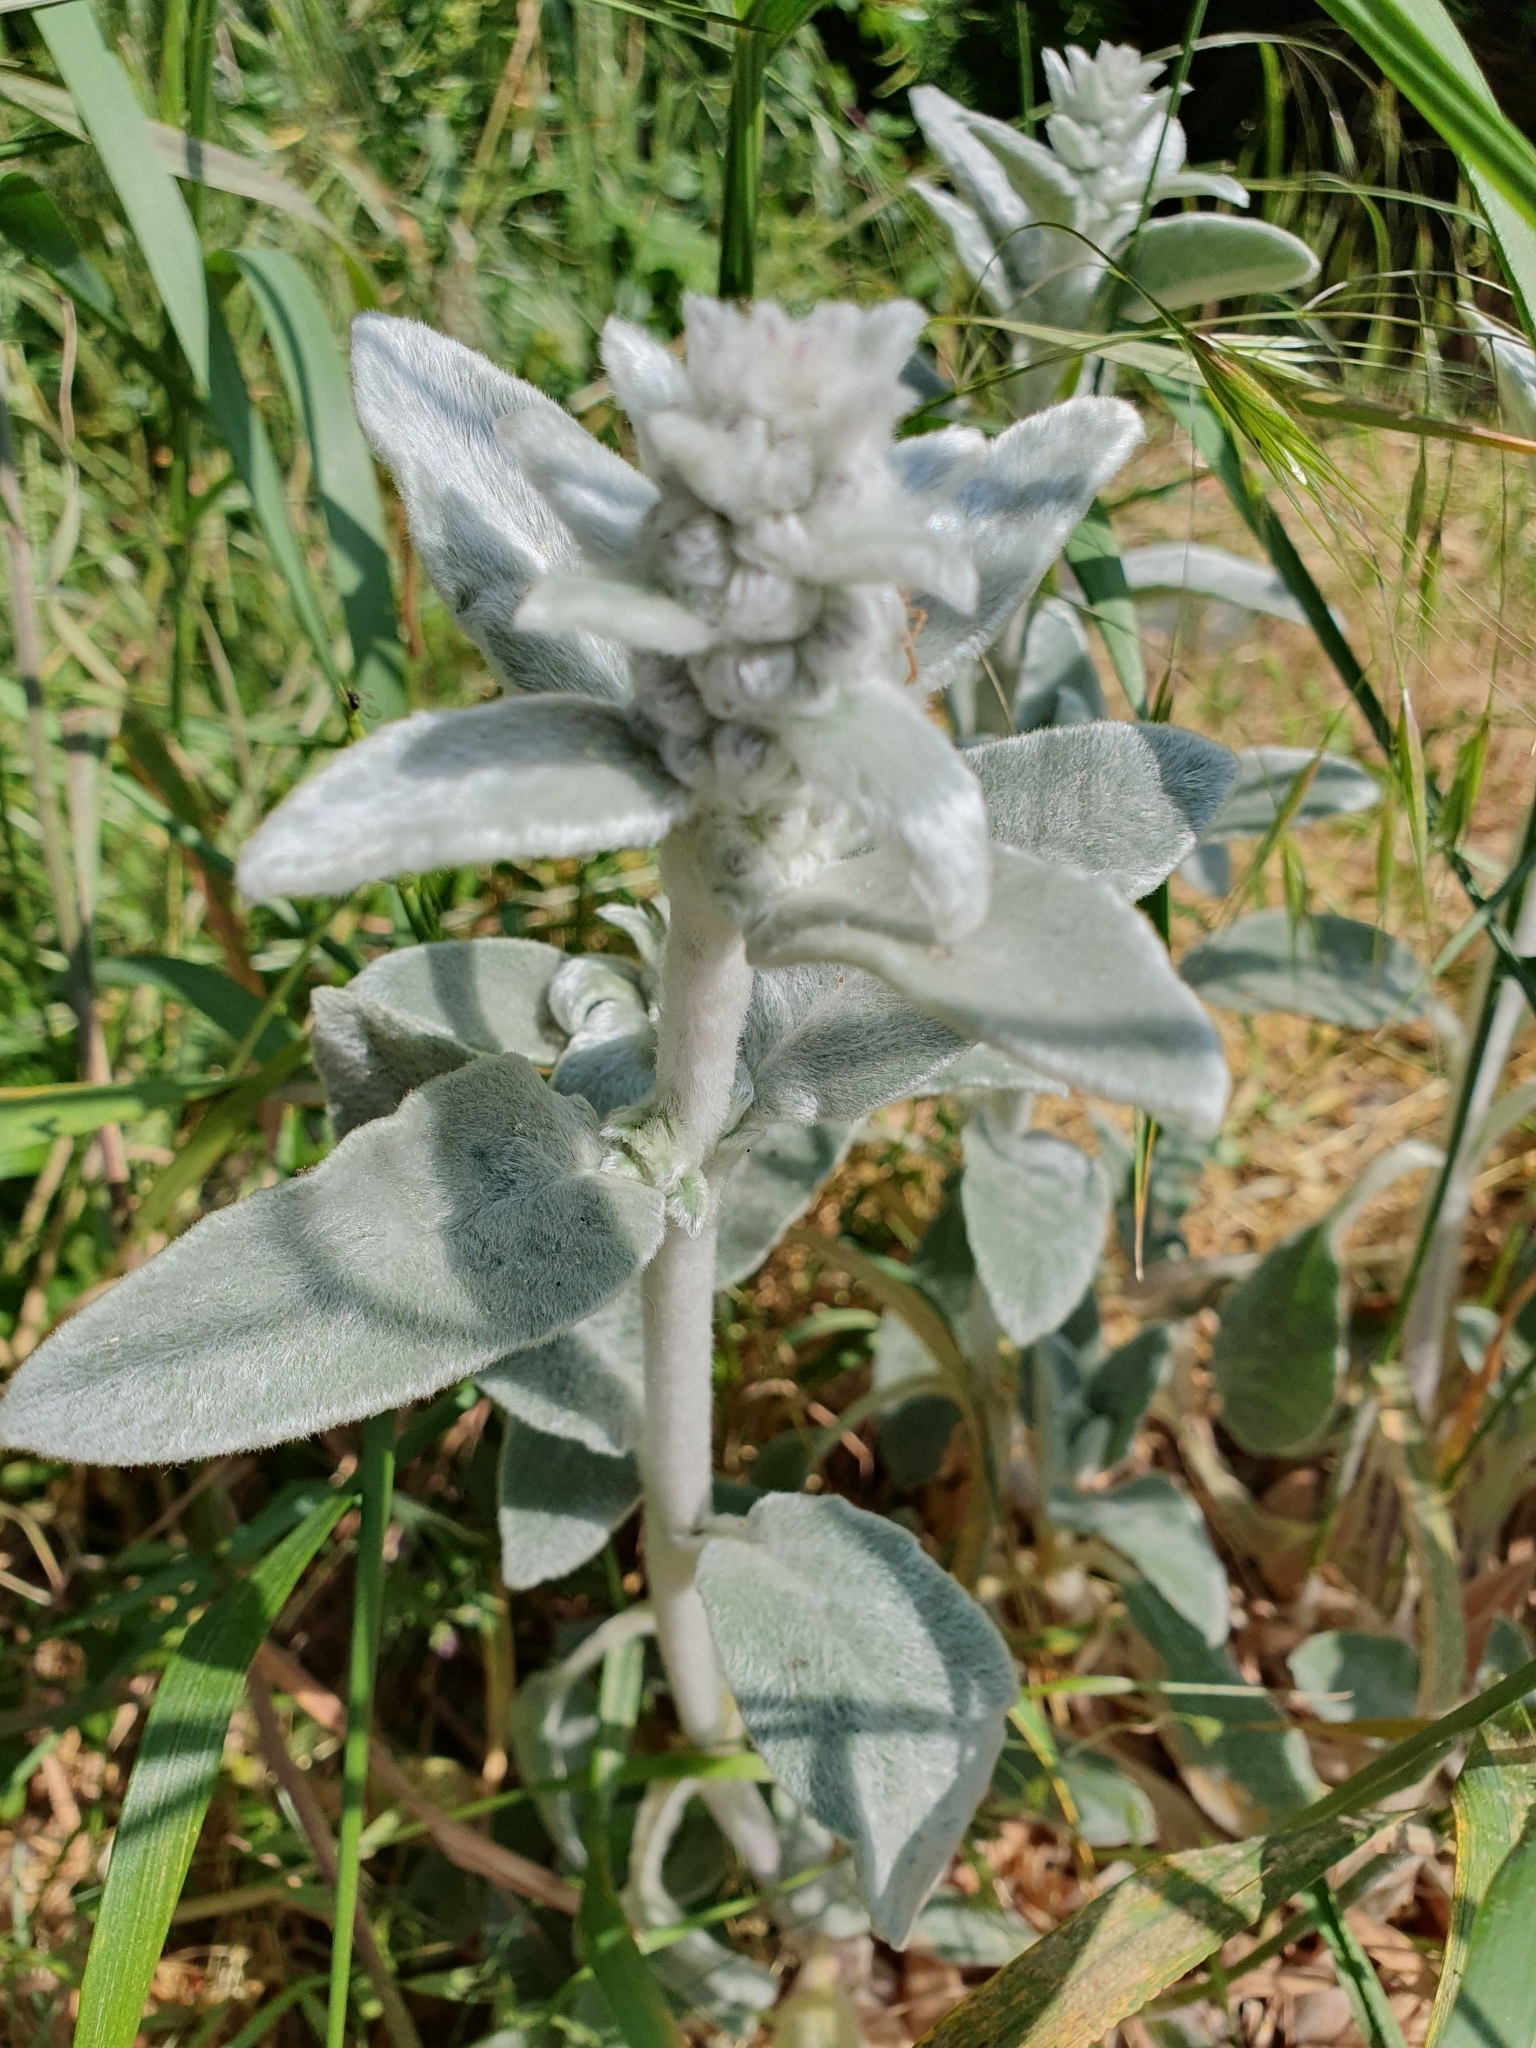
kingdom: Plantae
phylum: Tracheophyta
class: Magnoliopsida
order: Lamiales
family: Lamiaceae
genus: Stachys
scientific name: Stachys byzantina
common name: Lamb's-ear
